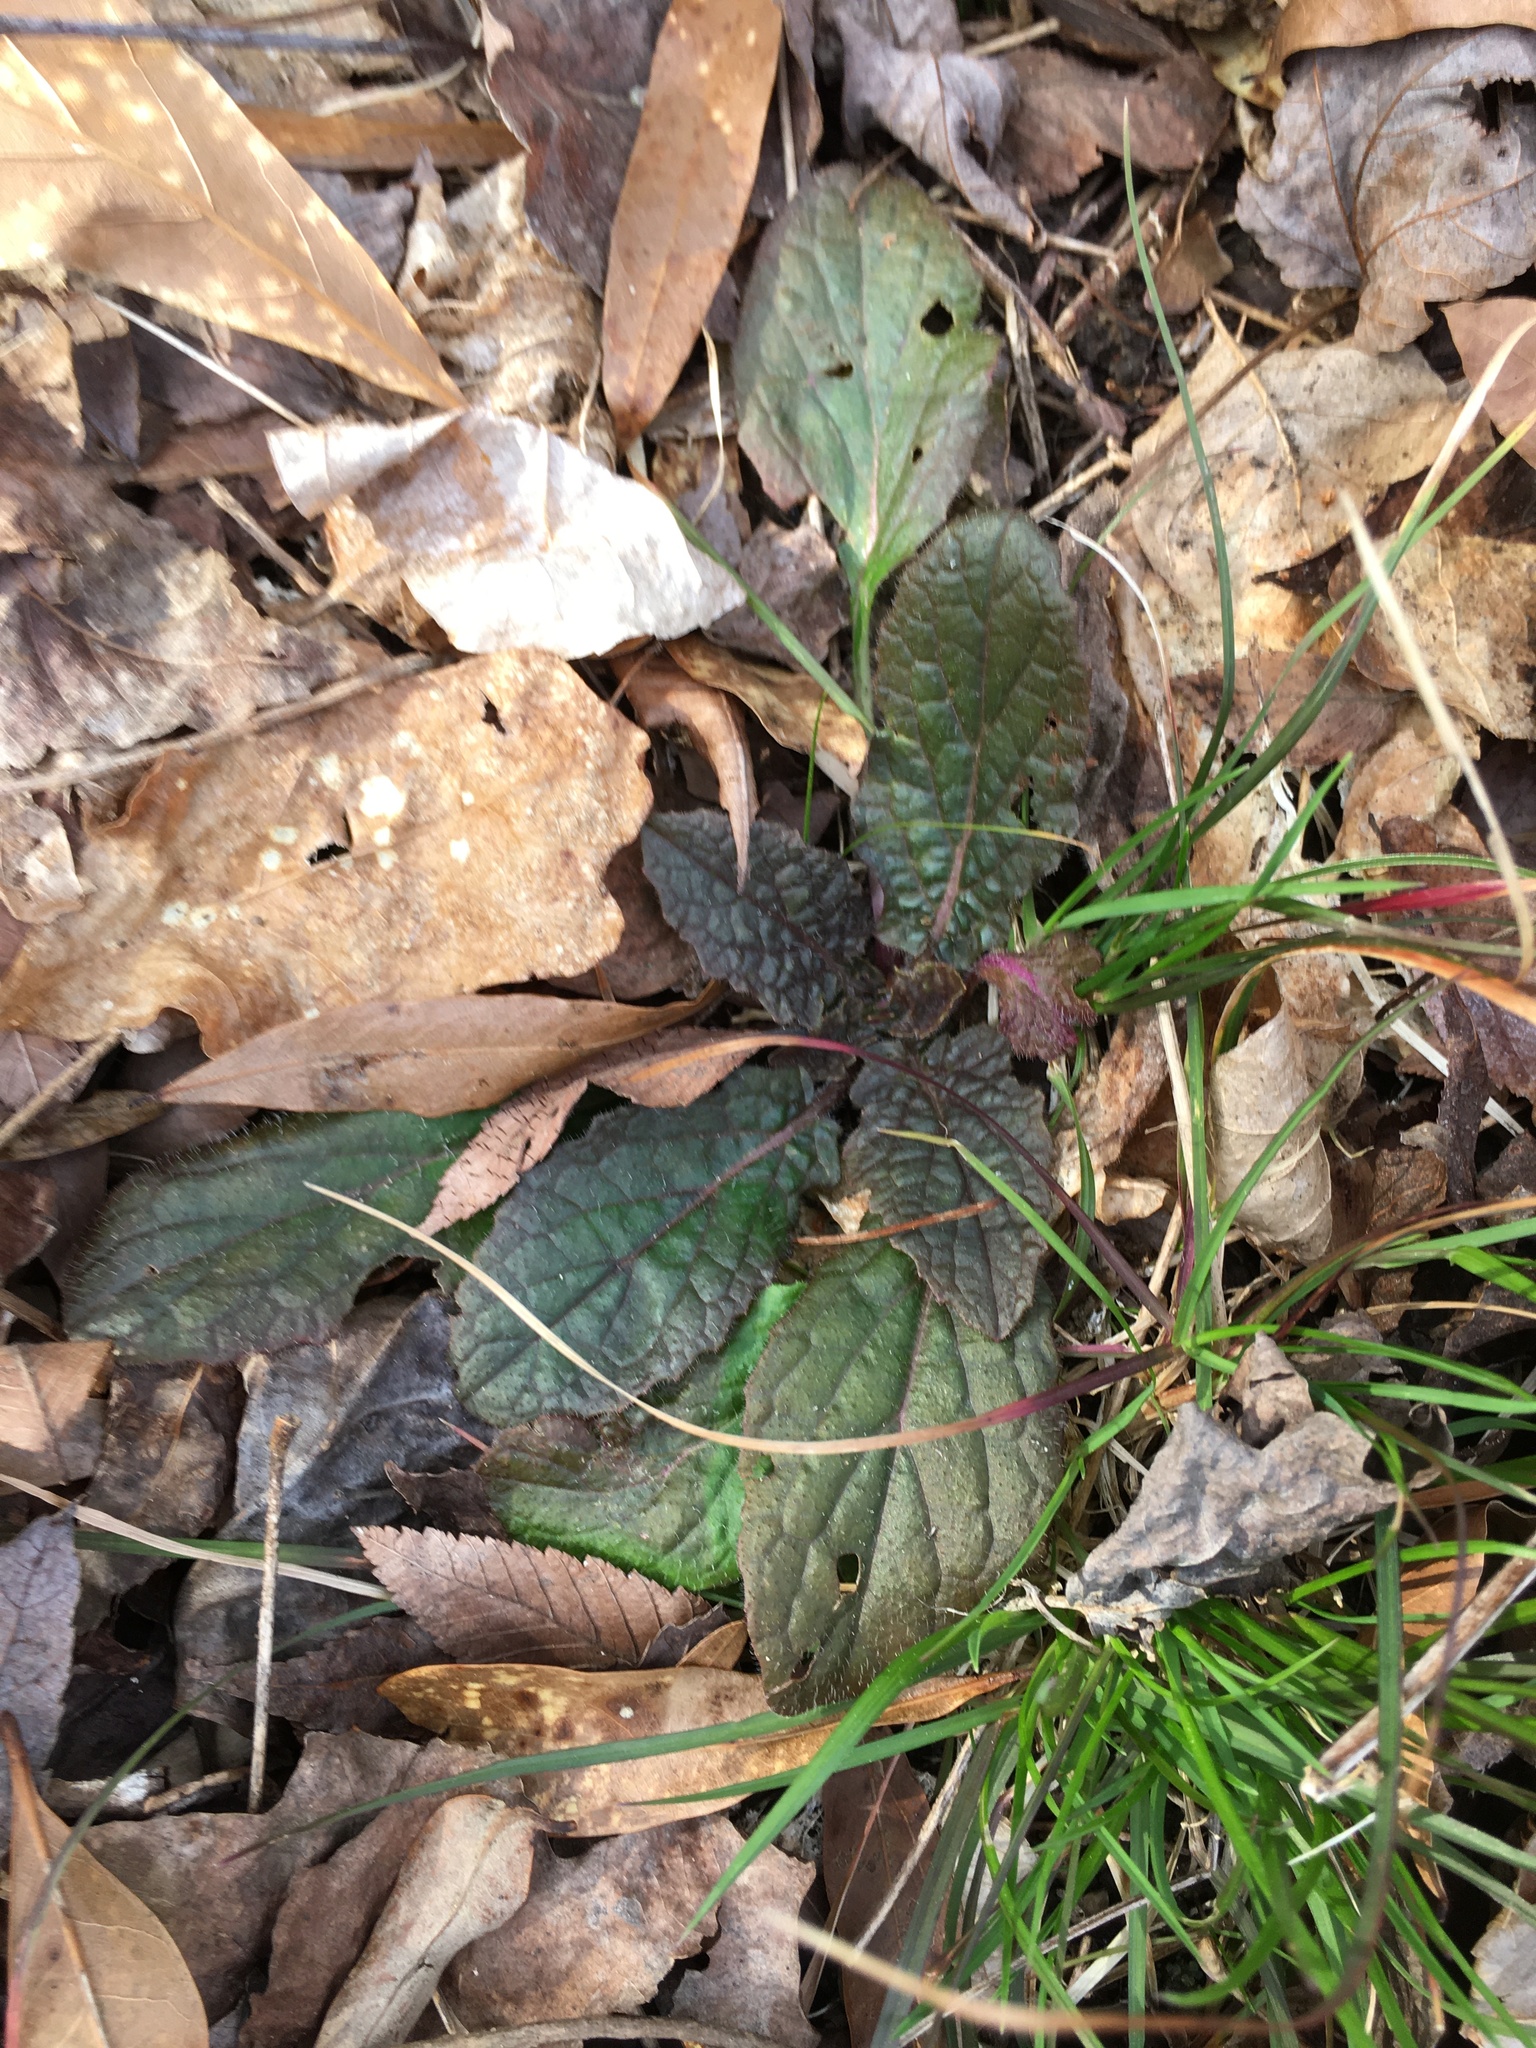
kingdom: Plantae
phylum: Tracheophyta
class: Magnoliopsida
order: Lamiales
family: Lamiaceae
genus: Salvia
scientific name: Salvia lyrata
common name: Cancerweed
